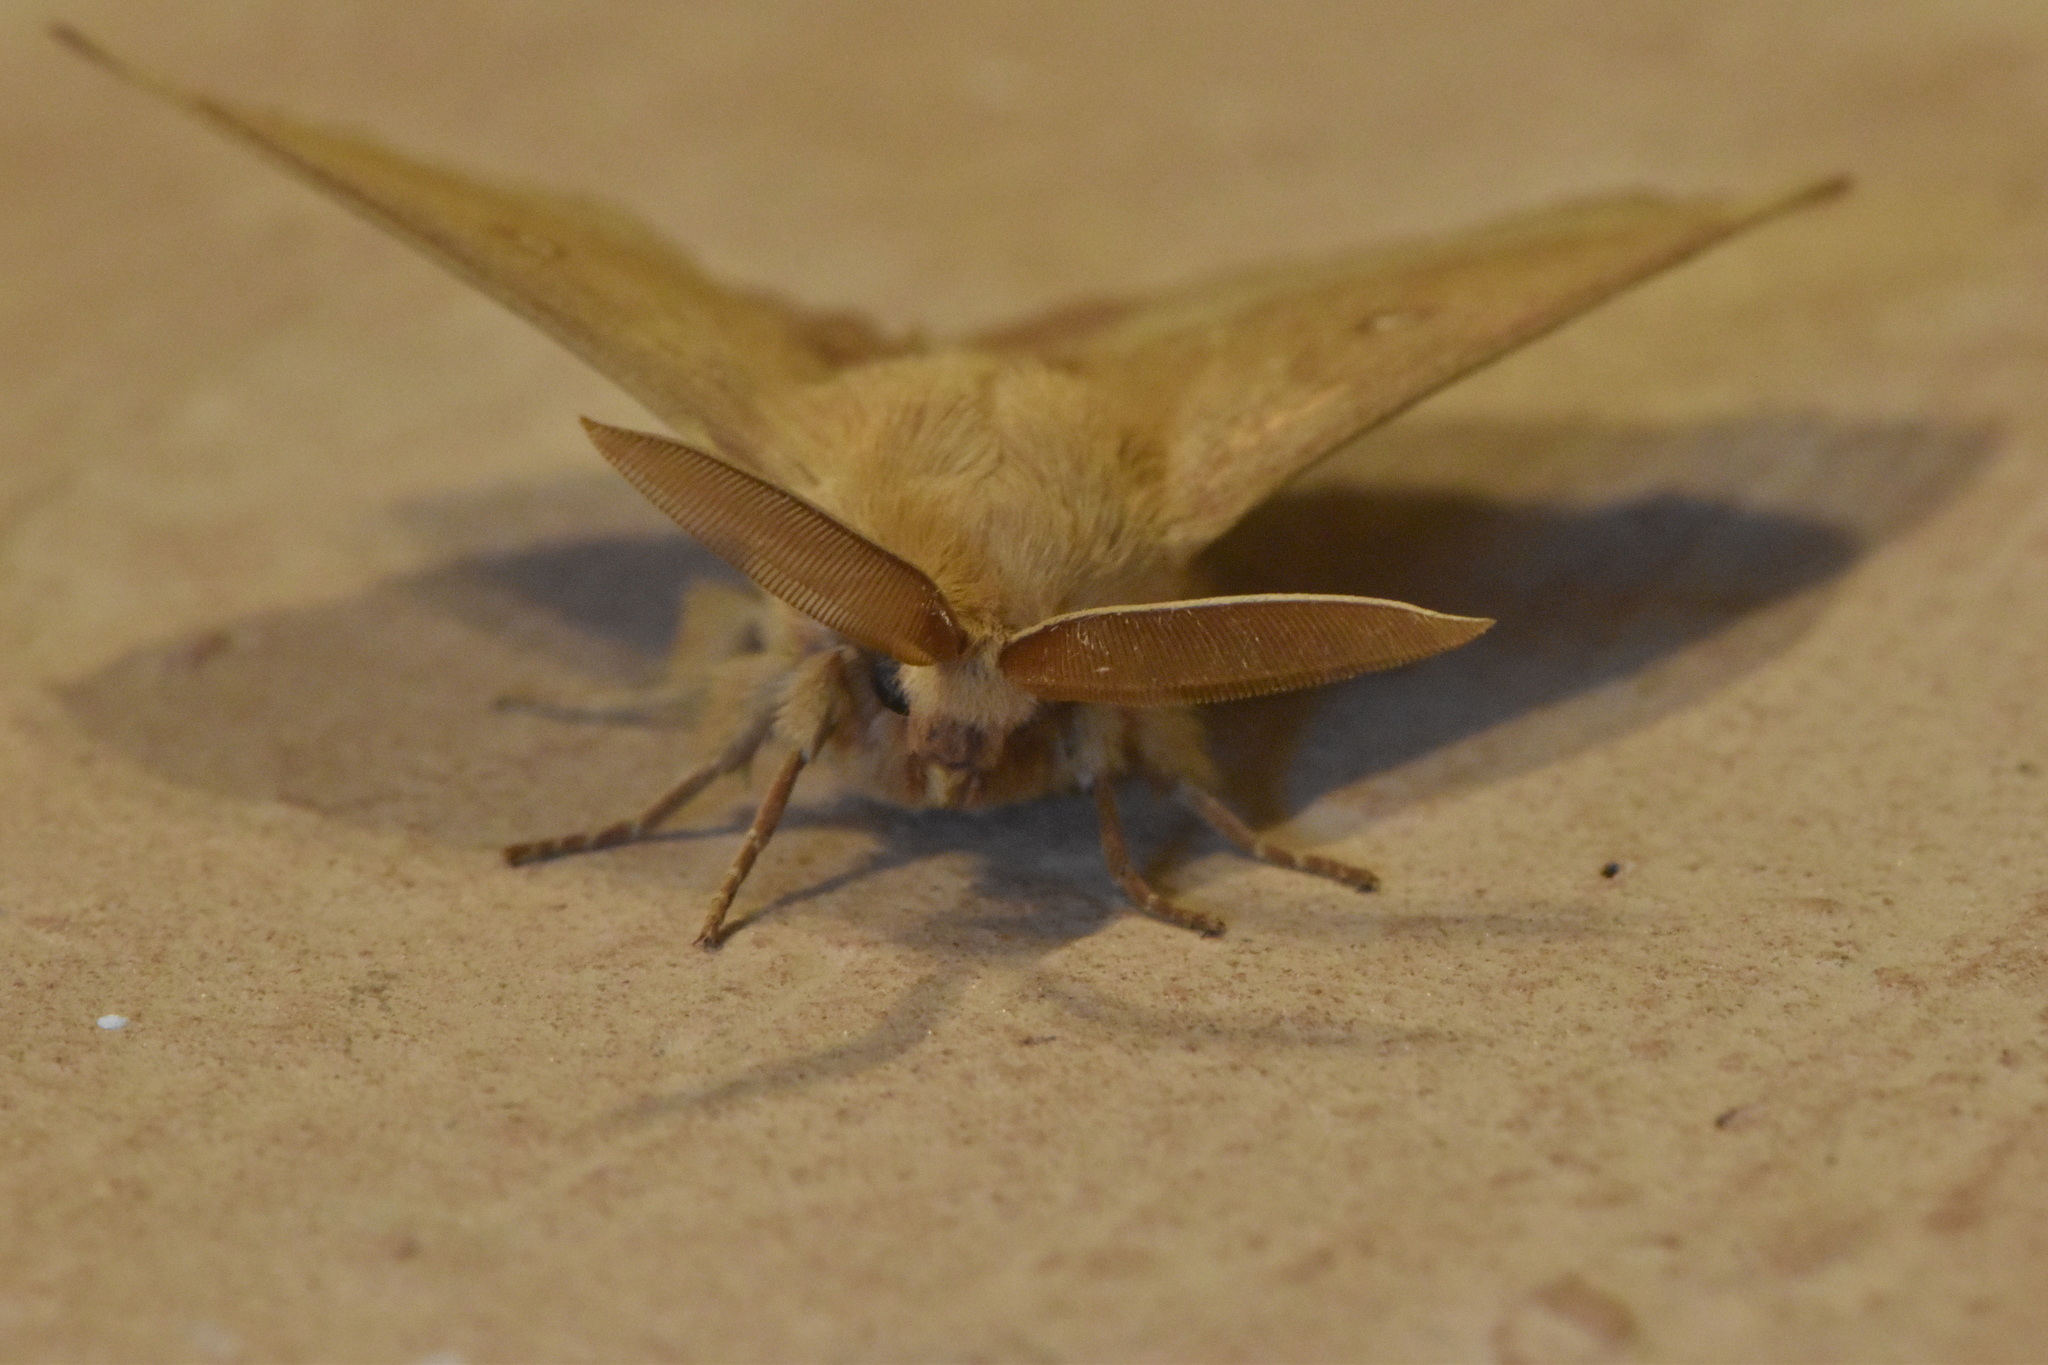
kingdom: Animalia
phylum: Arthropoda
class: Insecta
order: Lepidoptera
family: Lasiocampidae
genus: Lasiocampa
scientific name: Lasiocampa trifolii
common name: Grass eggar
